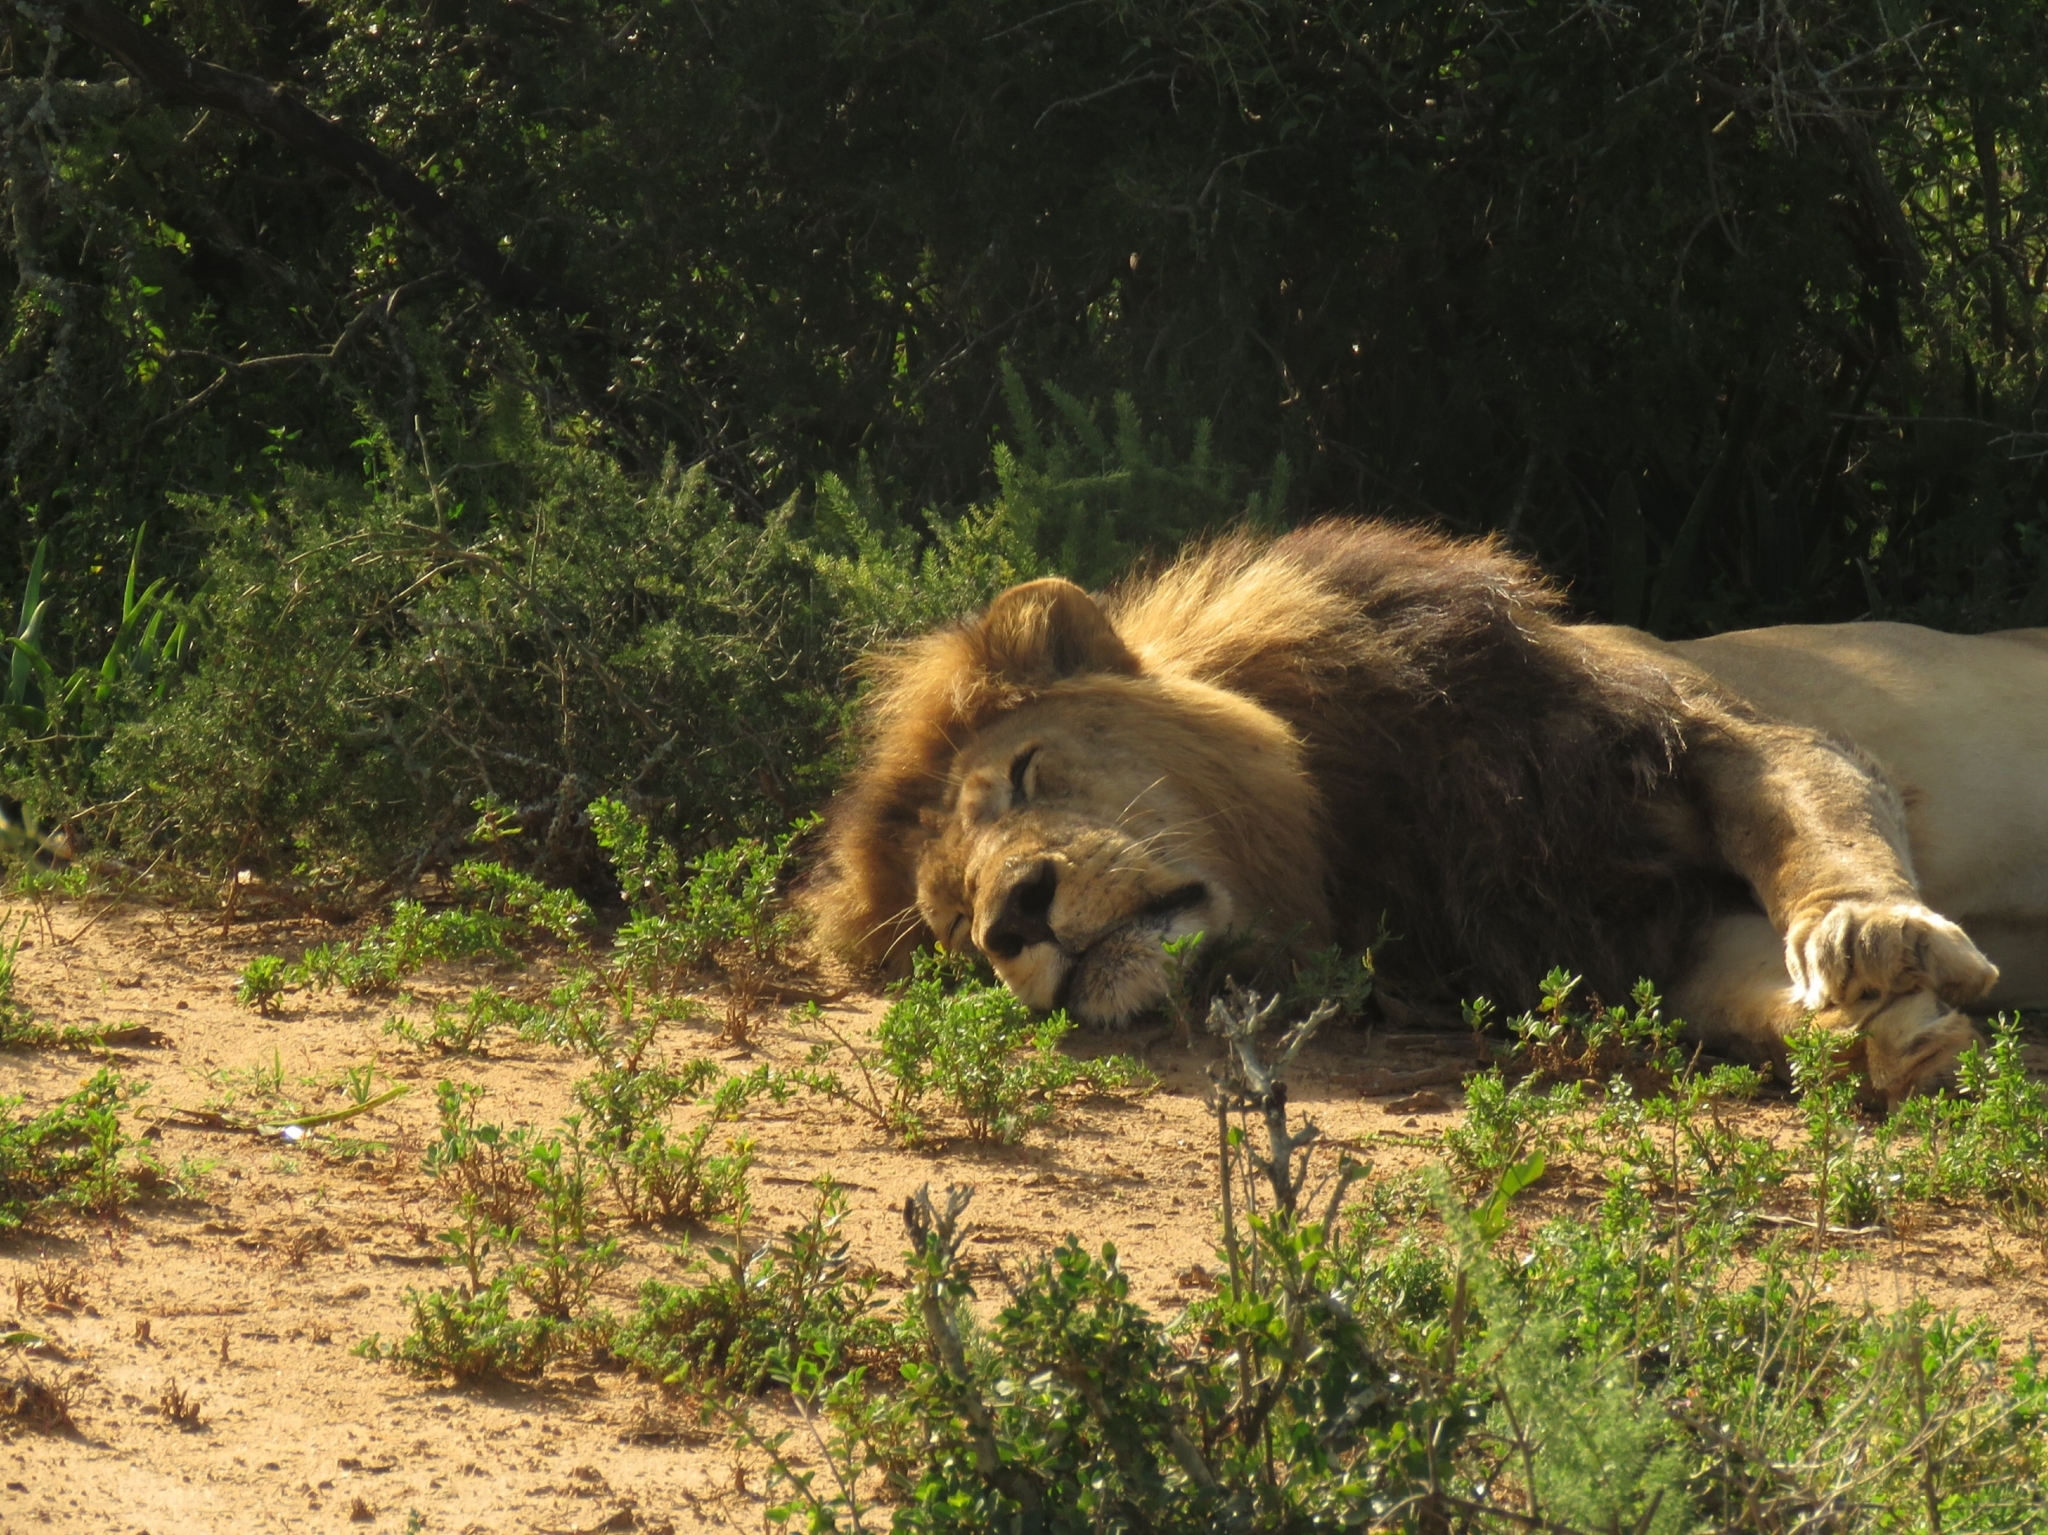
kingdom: Animalia
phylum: Chordata
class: Mammalia
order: Carnivora
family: Felidae
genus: Panthera
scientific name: Panthera leo
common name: Lion
